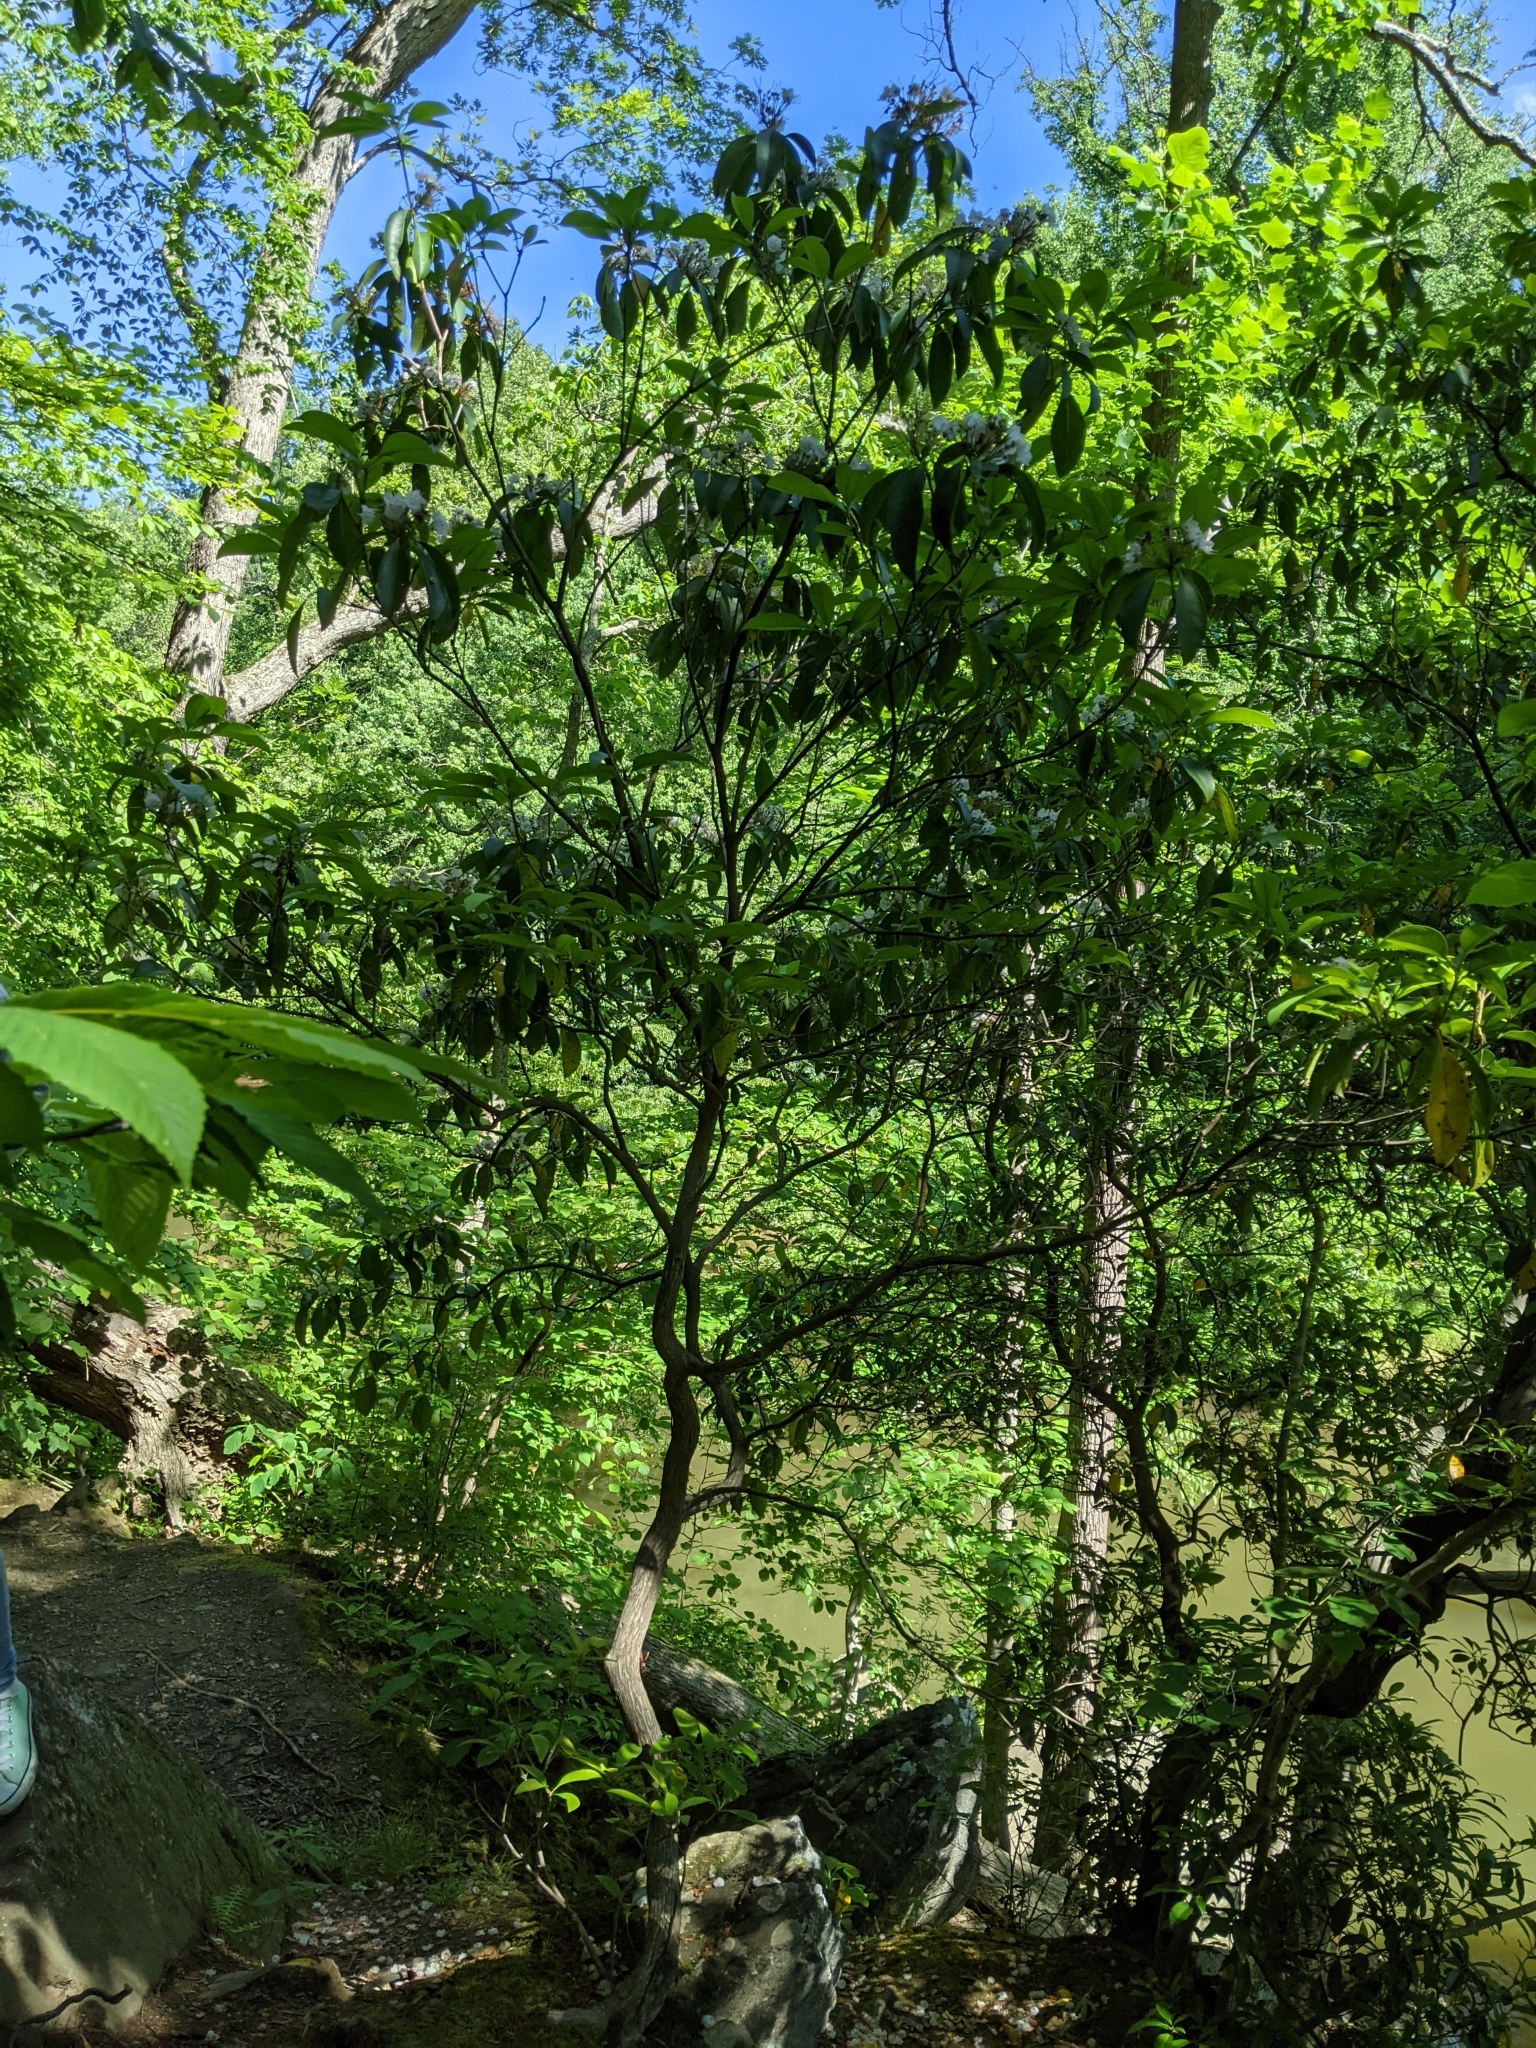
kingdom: Plantae
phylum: Tracheophyta
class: Magnoliopsida
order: Ericales
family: Ericaceae
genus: Kalmia
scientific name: Kalmia latifolia
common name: Mountain-laurel
